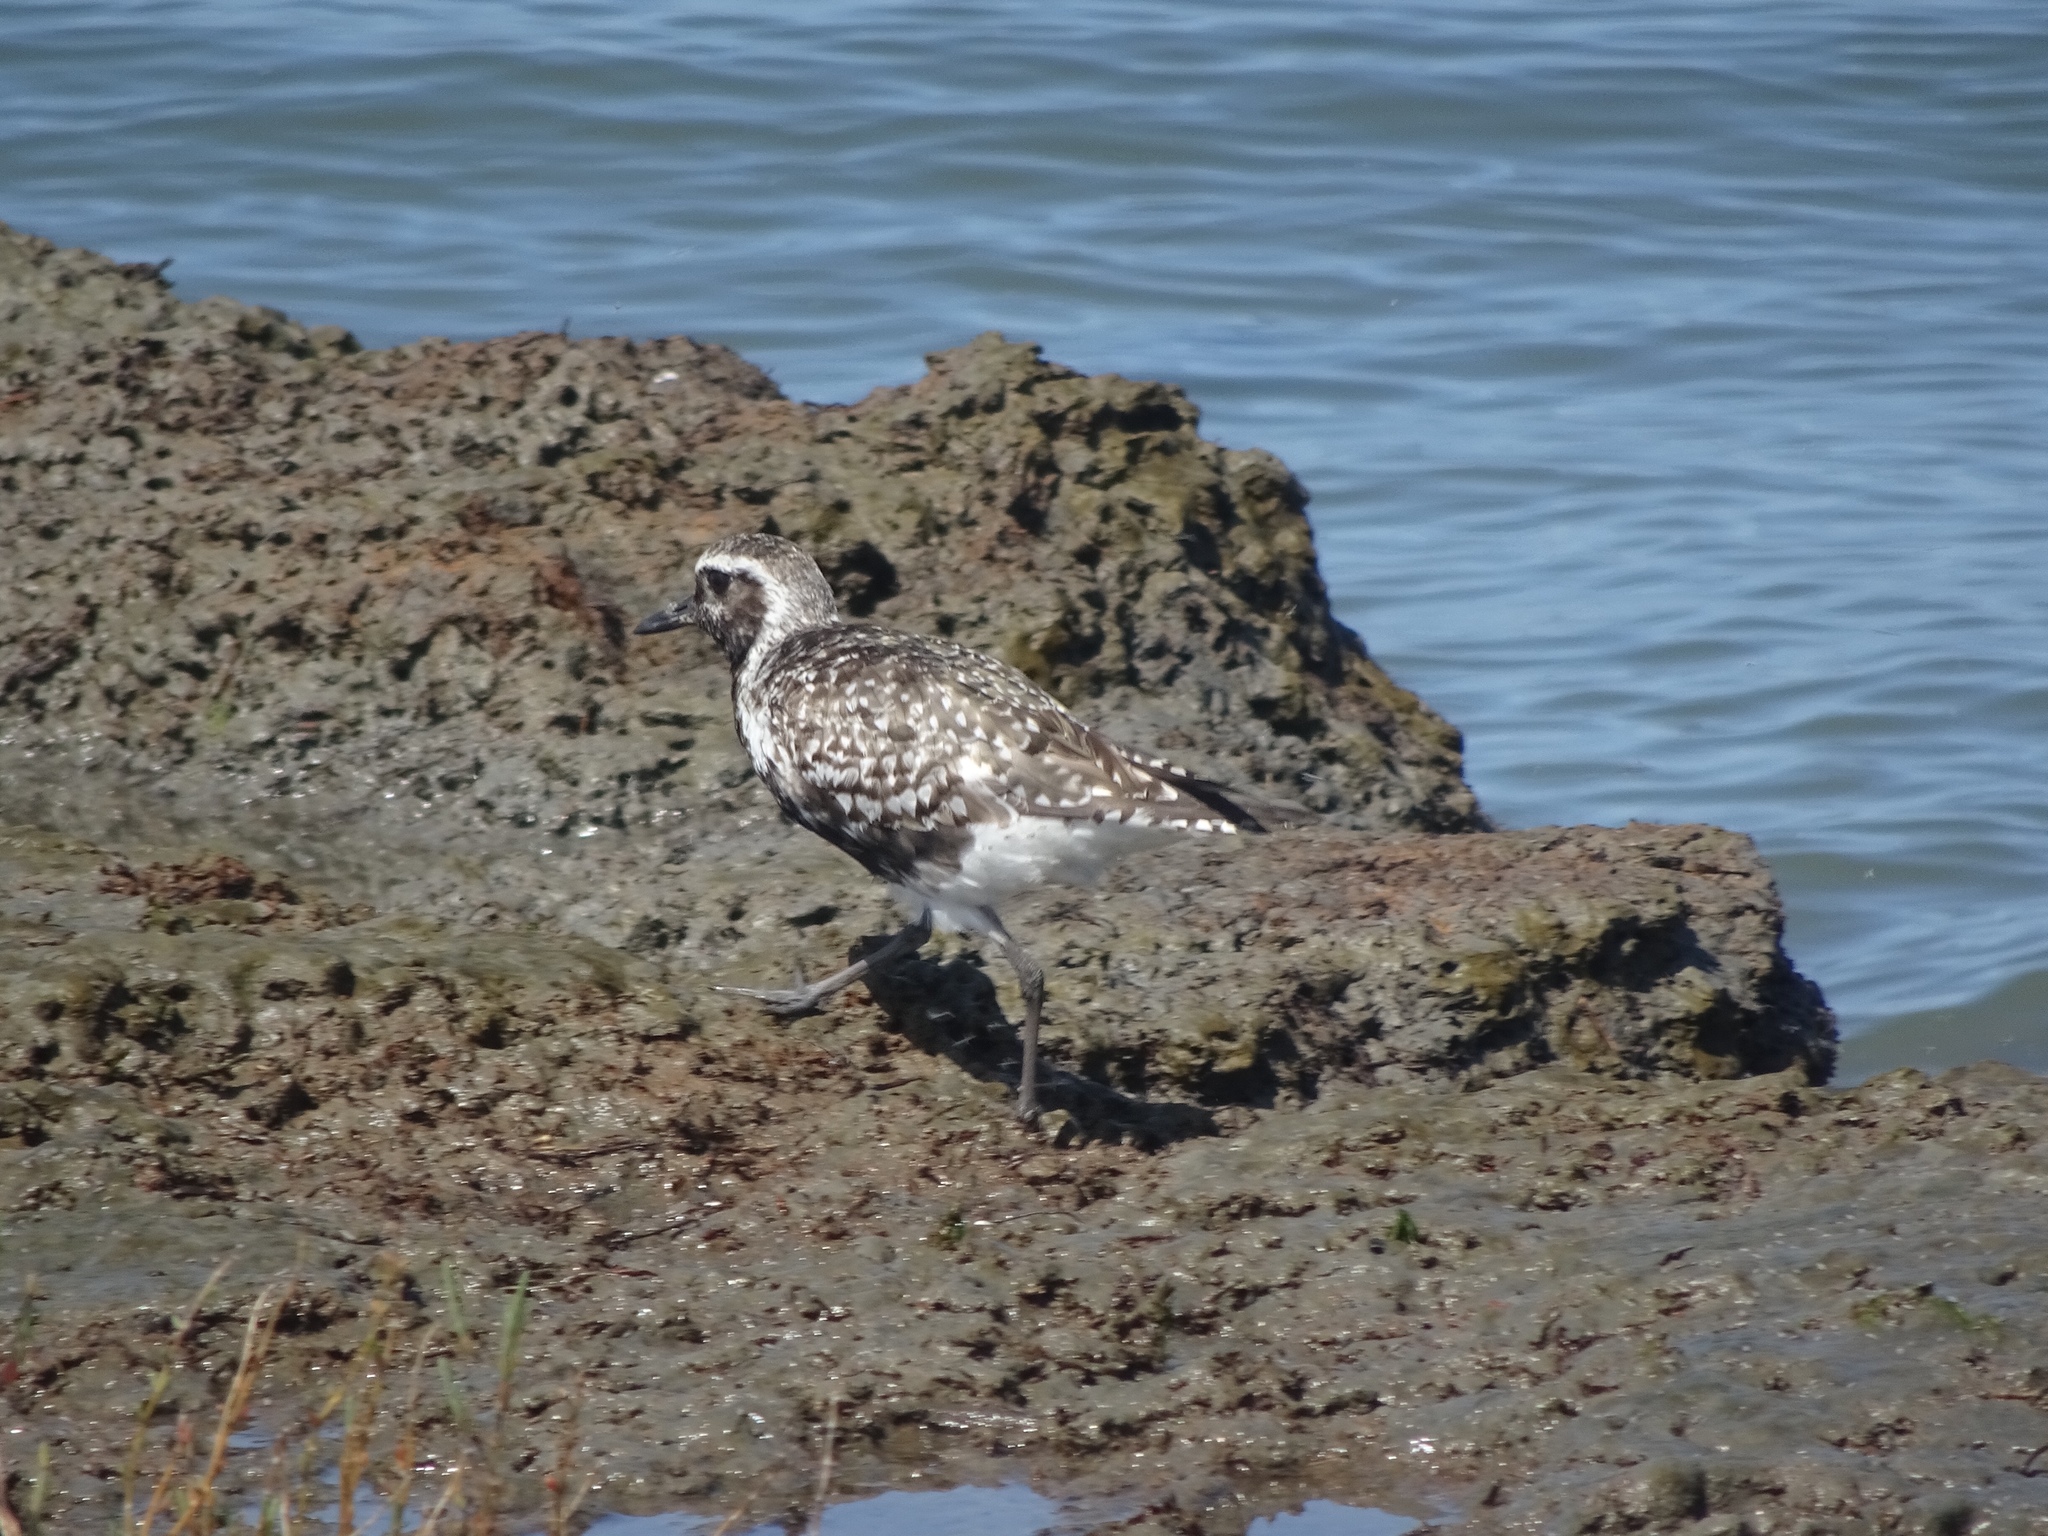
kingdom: Animalia
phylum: Chordata
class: Aves
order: Charadriiformes
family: Charadriidae
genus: Pluvialis
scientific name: Pluvialis squatarola
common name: Grey plover
